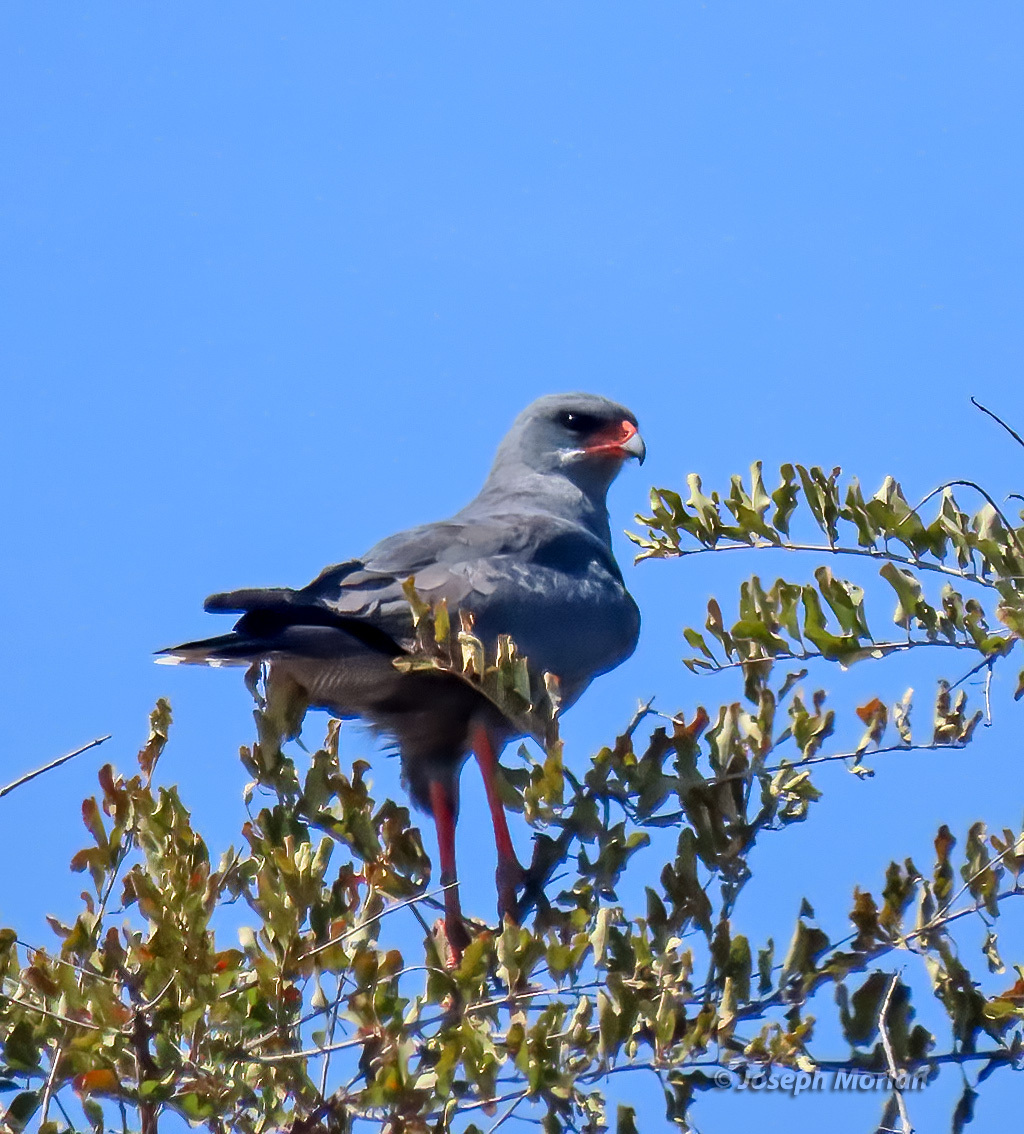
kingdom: Animalia
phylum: Chordata
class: Aves
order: Accipitriformes
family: Accipitridae
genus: Melierax
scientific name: Melierax metabates
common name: Dark chanting-goshawk
